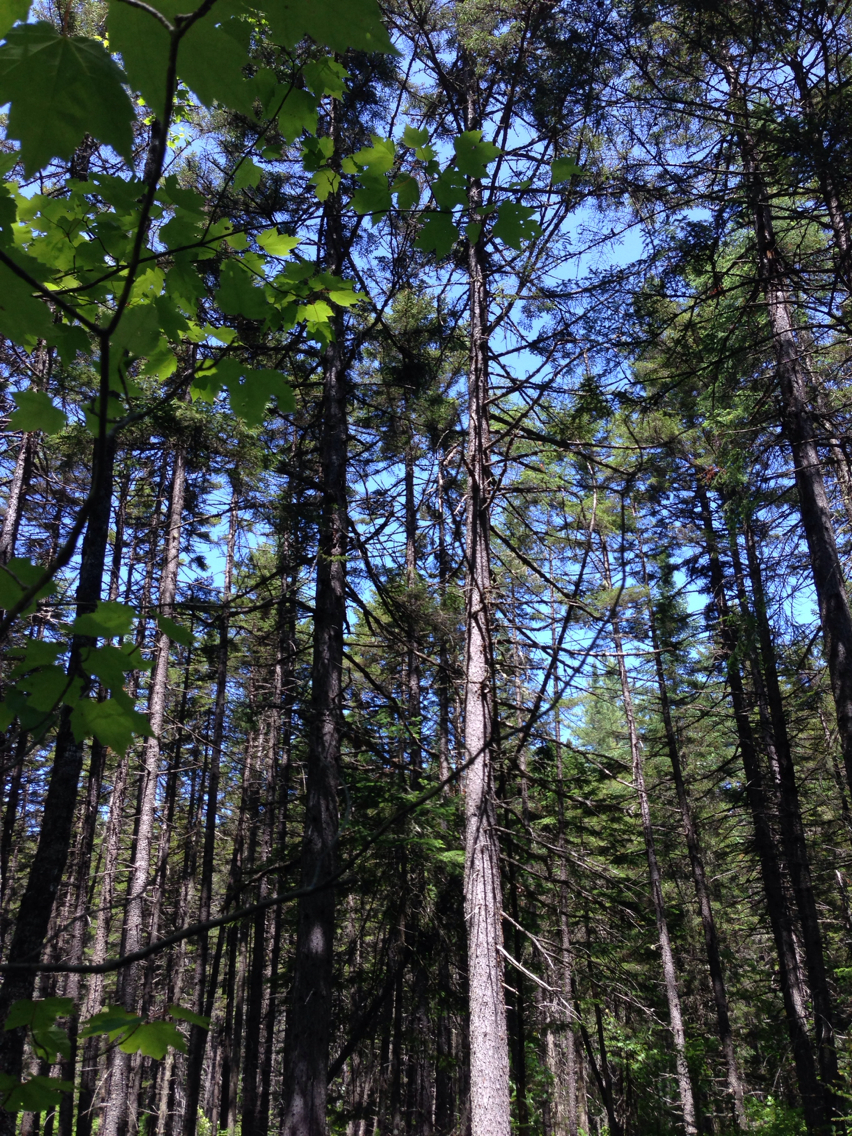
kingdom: Plantae
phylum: Tracheophyta
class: Pinopsida
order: Pinales
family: Pinaceae
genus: Picea
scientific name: Picea rubens
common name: Red spruce
